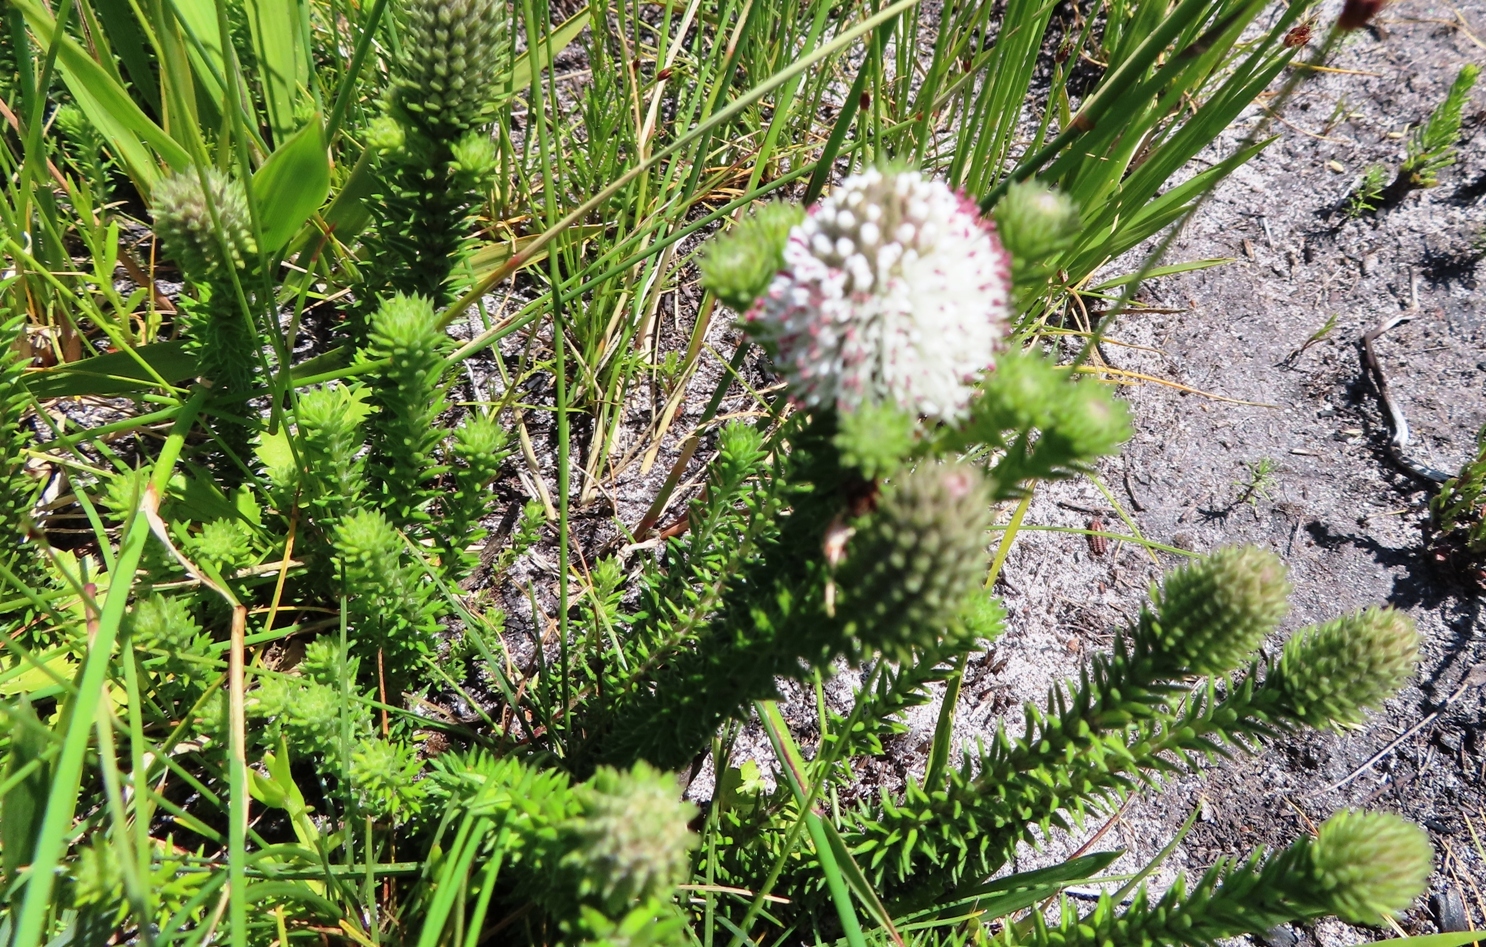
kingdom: Plantae
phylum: Tracheophyta
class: Magnoliopsida
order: Lamiales
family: Stilbaceae
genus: Campylostachys
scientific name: Campylostachys cernua
